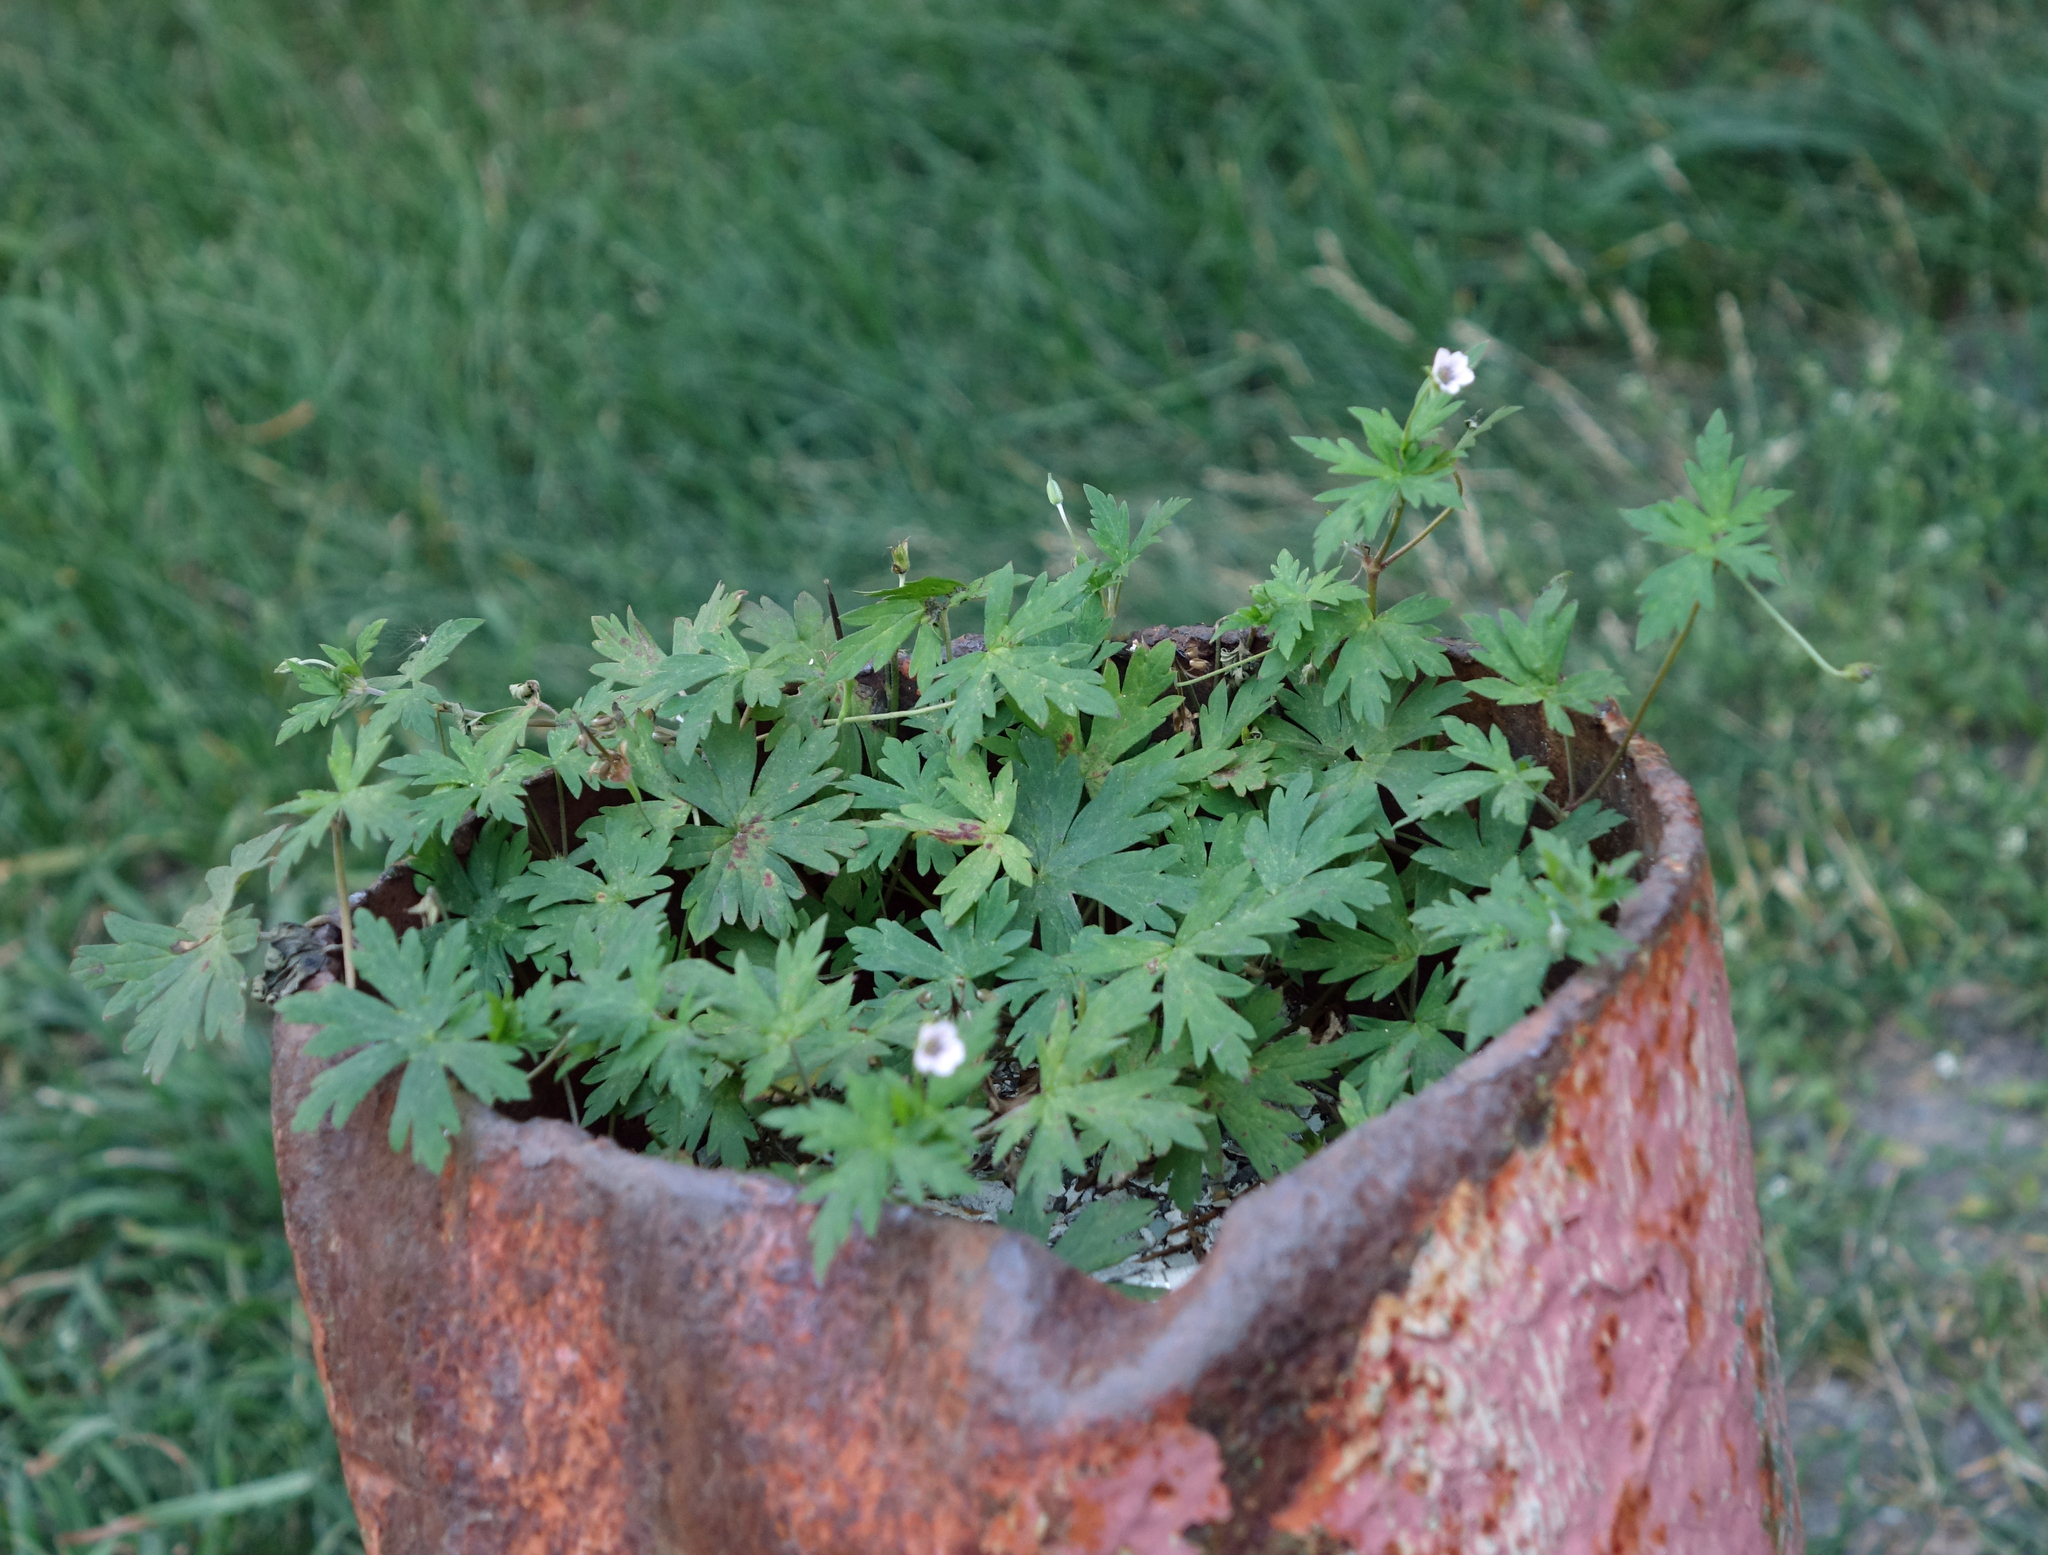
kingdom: Plantae
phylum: Tracheophyta
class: Magnoliopsida
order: Geraniales
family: Geraniaceae
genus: Geranium
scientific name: Geranium sibiricum
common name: Siberian crane's-bill
